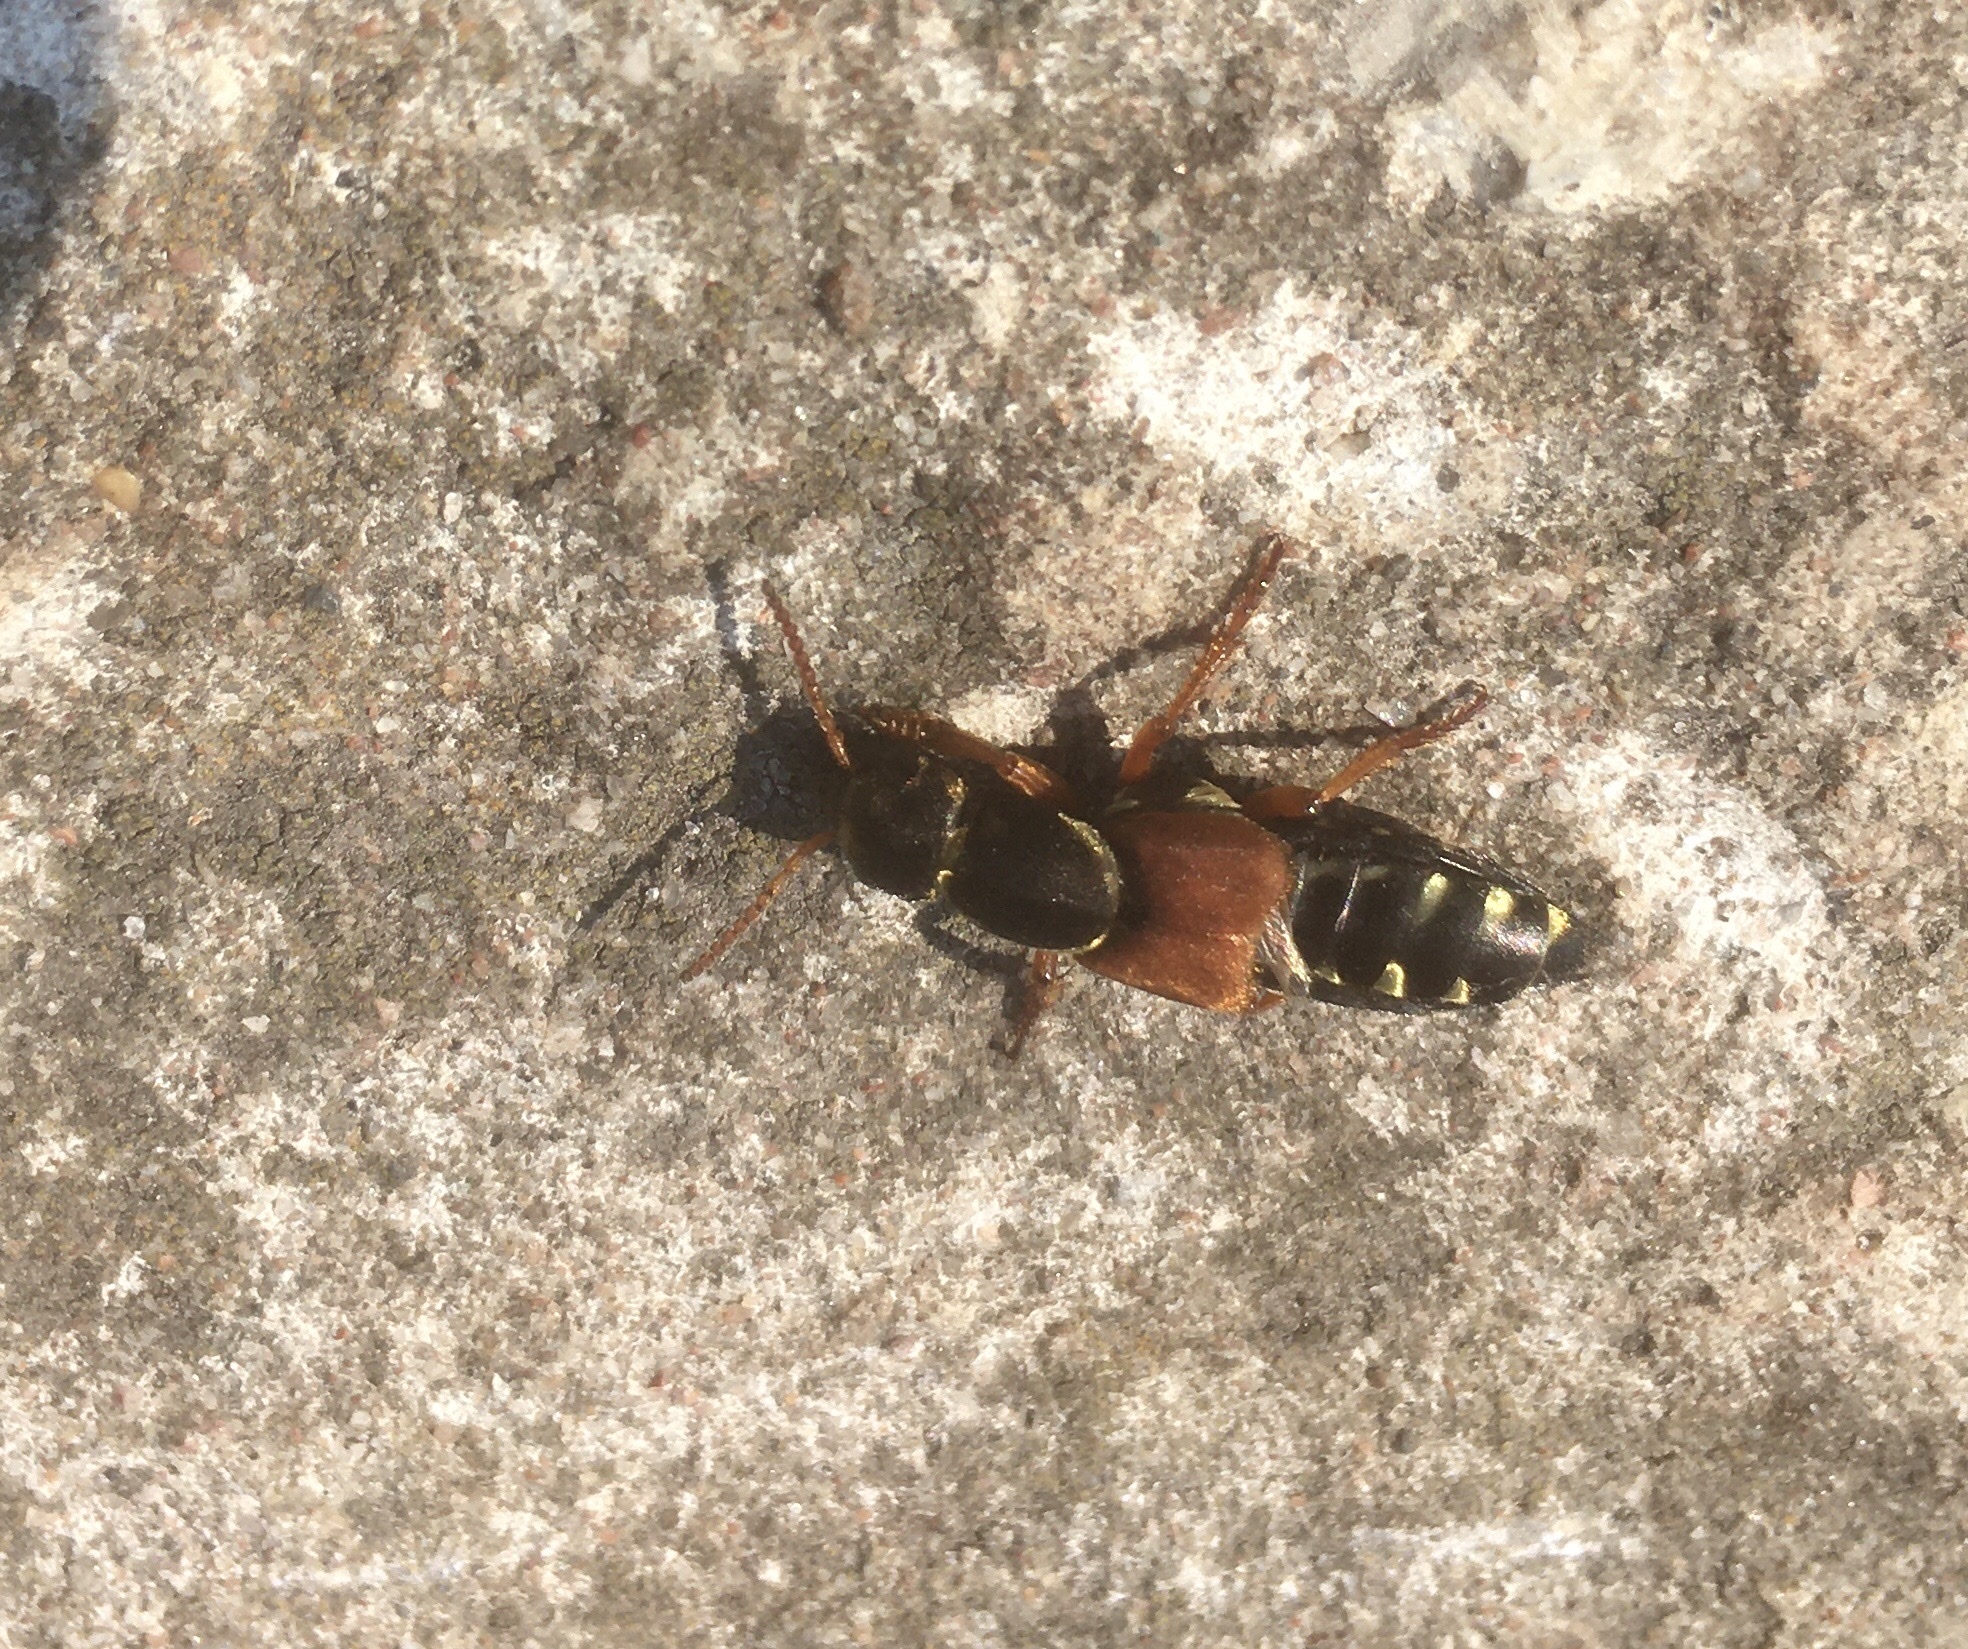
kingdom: Animalia
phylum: Arthropoda
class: Insecta
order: Coleoptera
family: Staphylinidae
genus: Staphylinus
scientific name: Staphylinus caesareus
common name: Staph beetle
